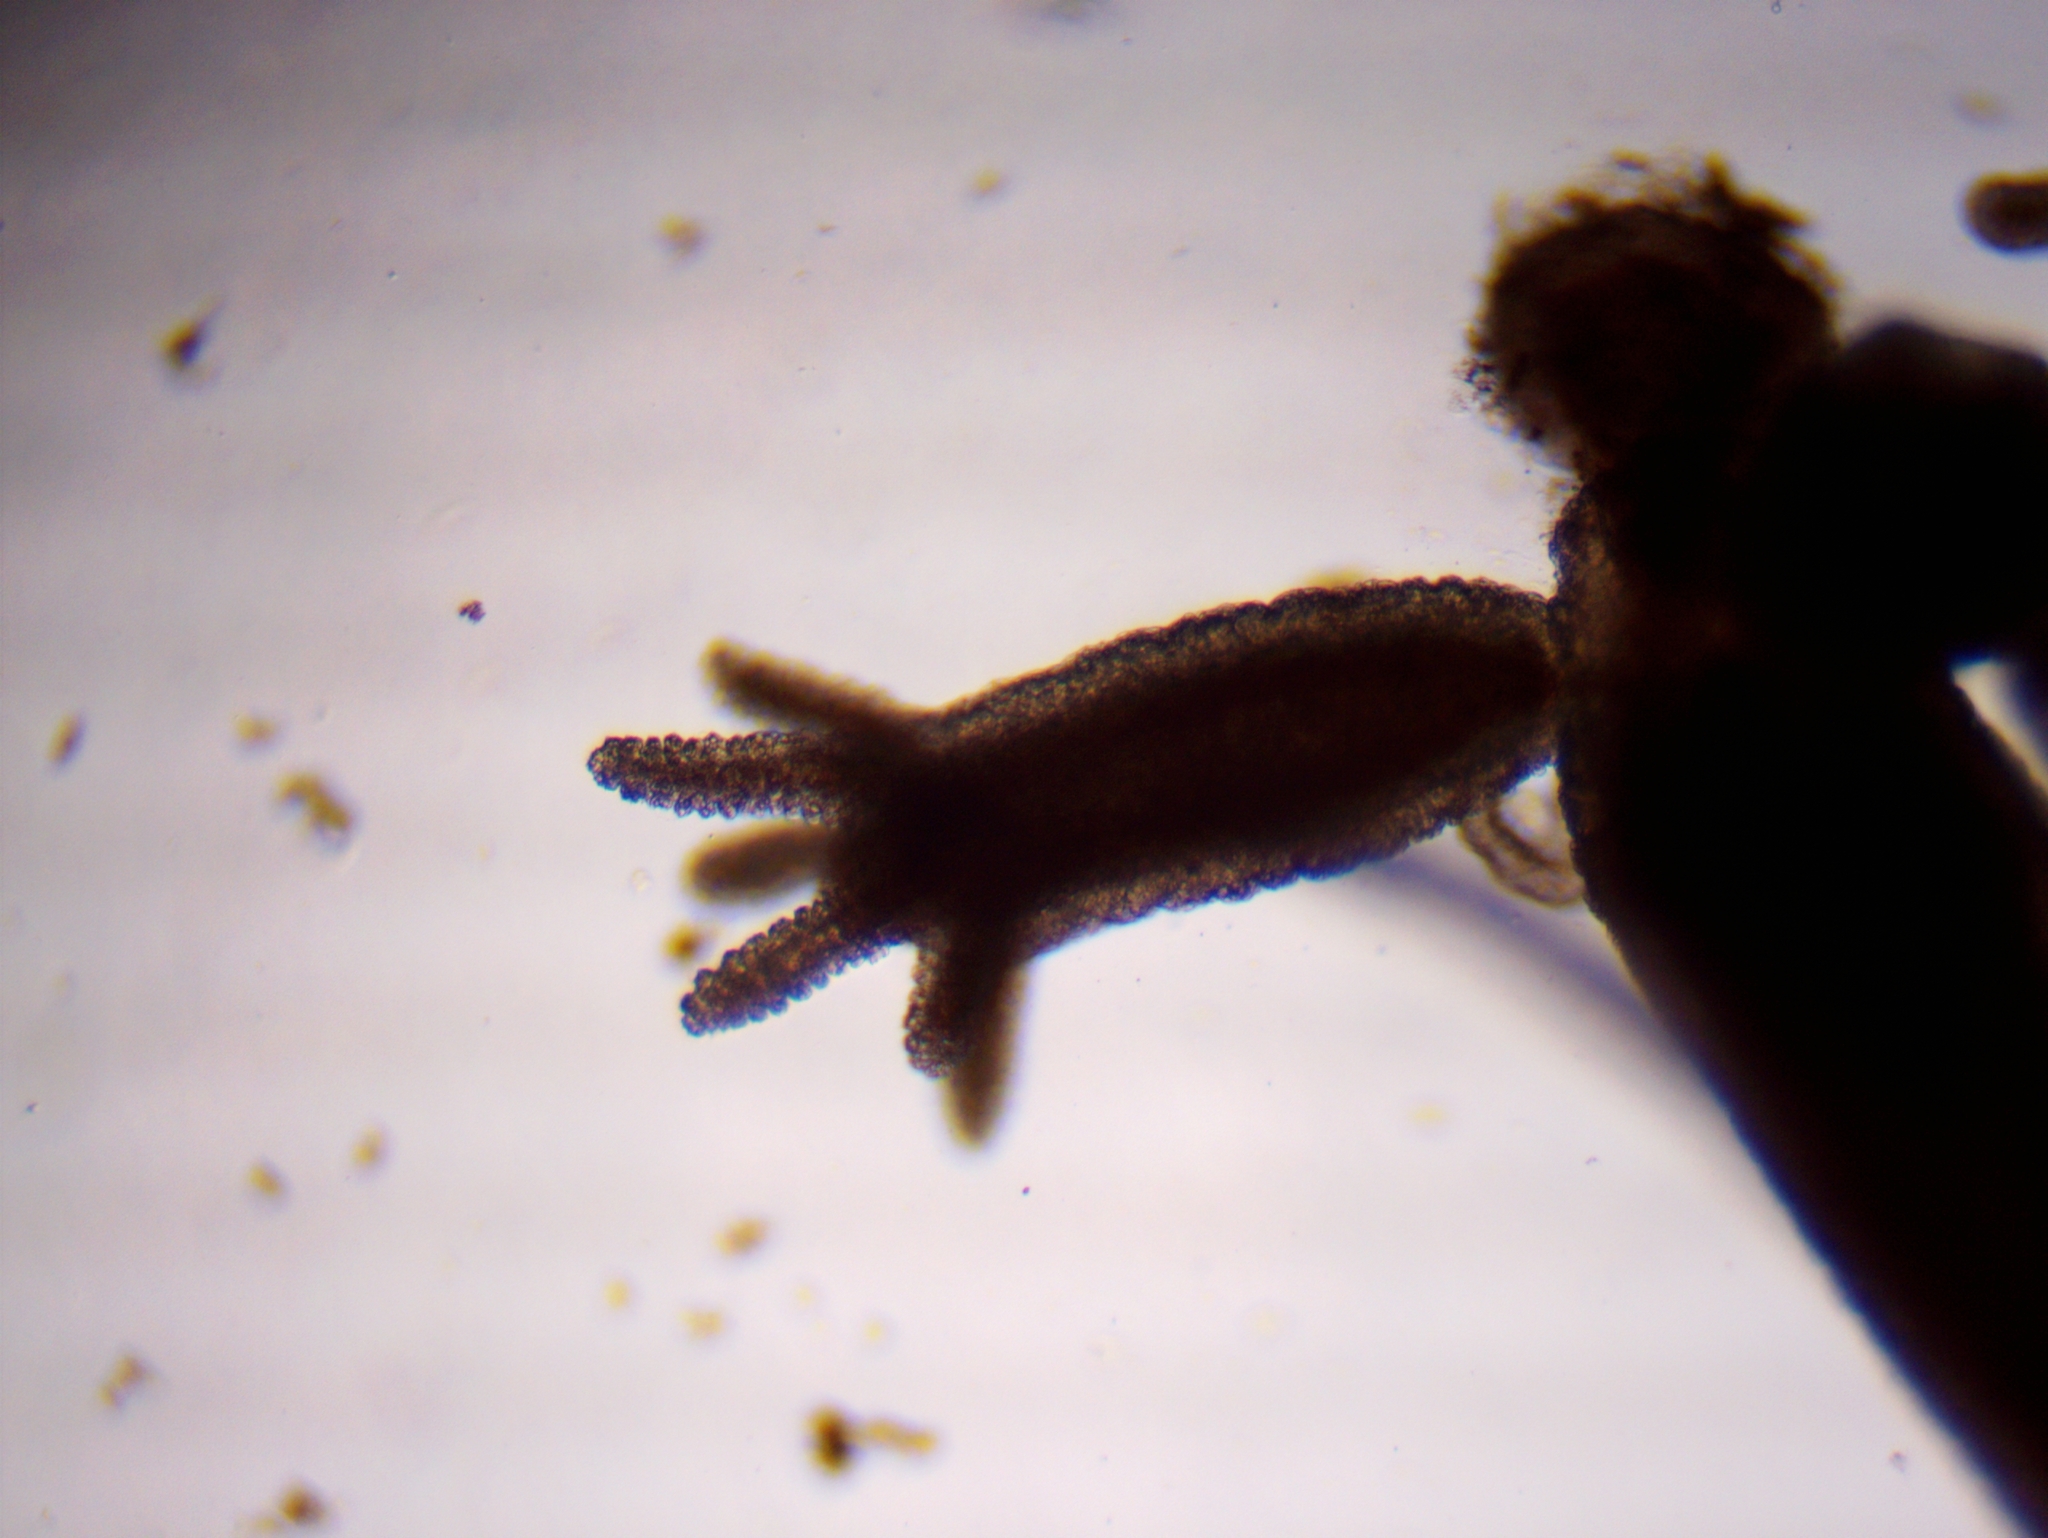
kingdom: Animalia
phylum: Cnidaria
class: Hydrozoa
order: Anthoathecata
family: Hydridae
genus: Hydra
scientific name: Hydra oligactis
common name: Brown hydra
